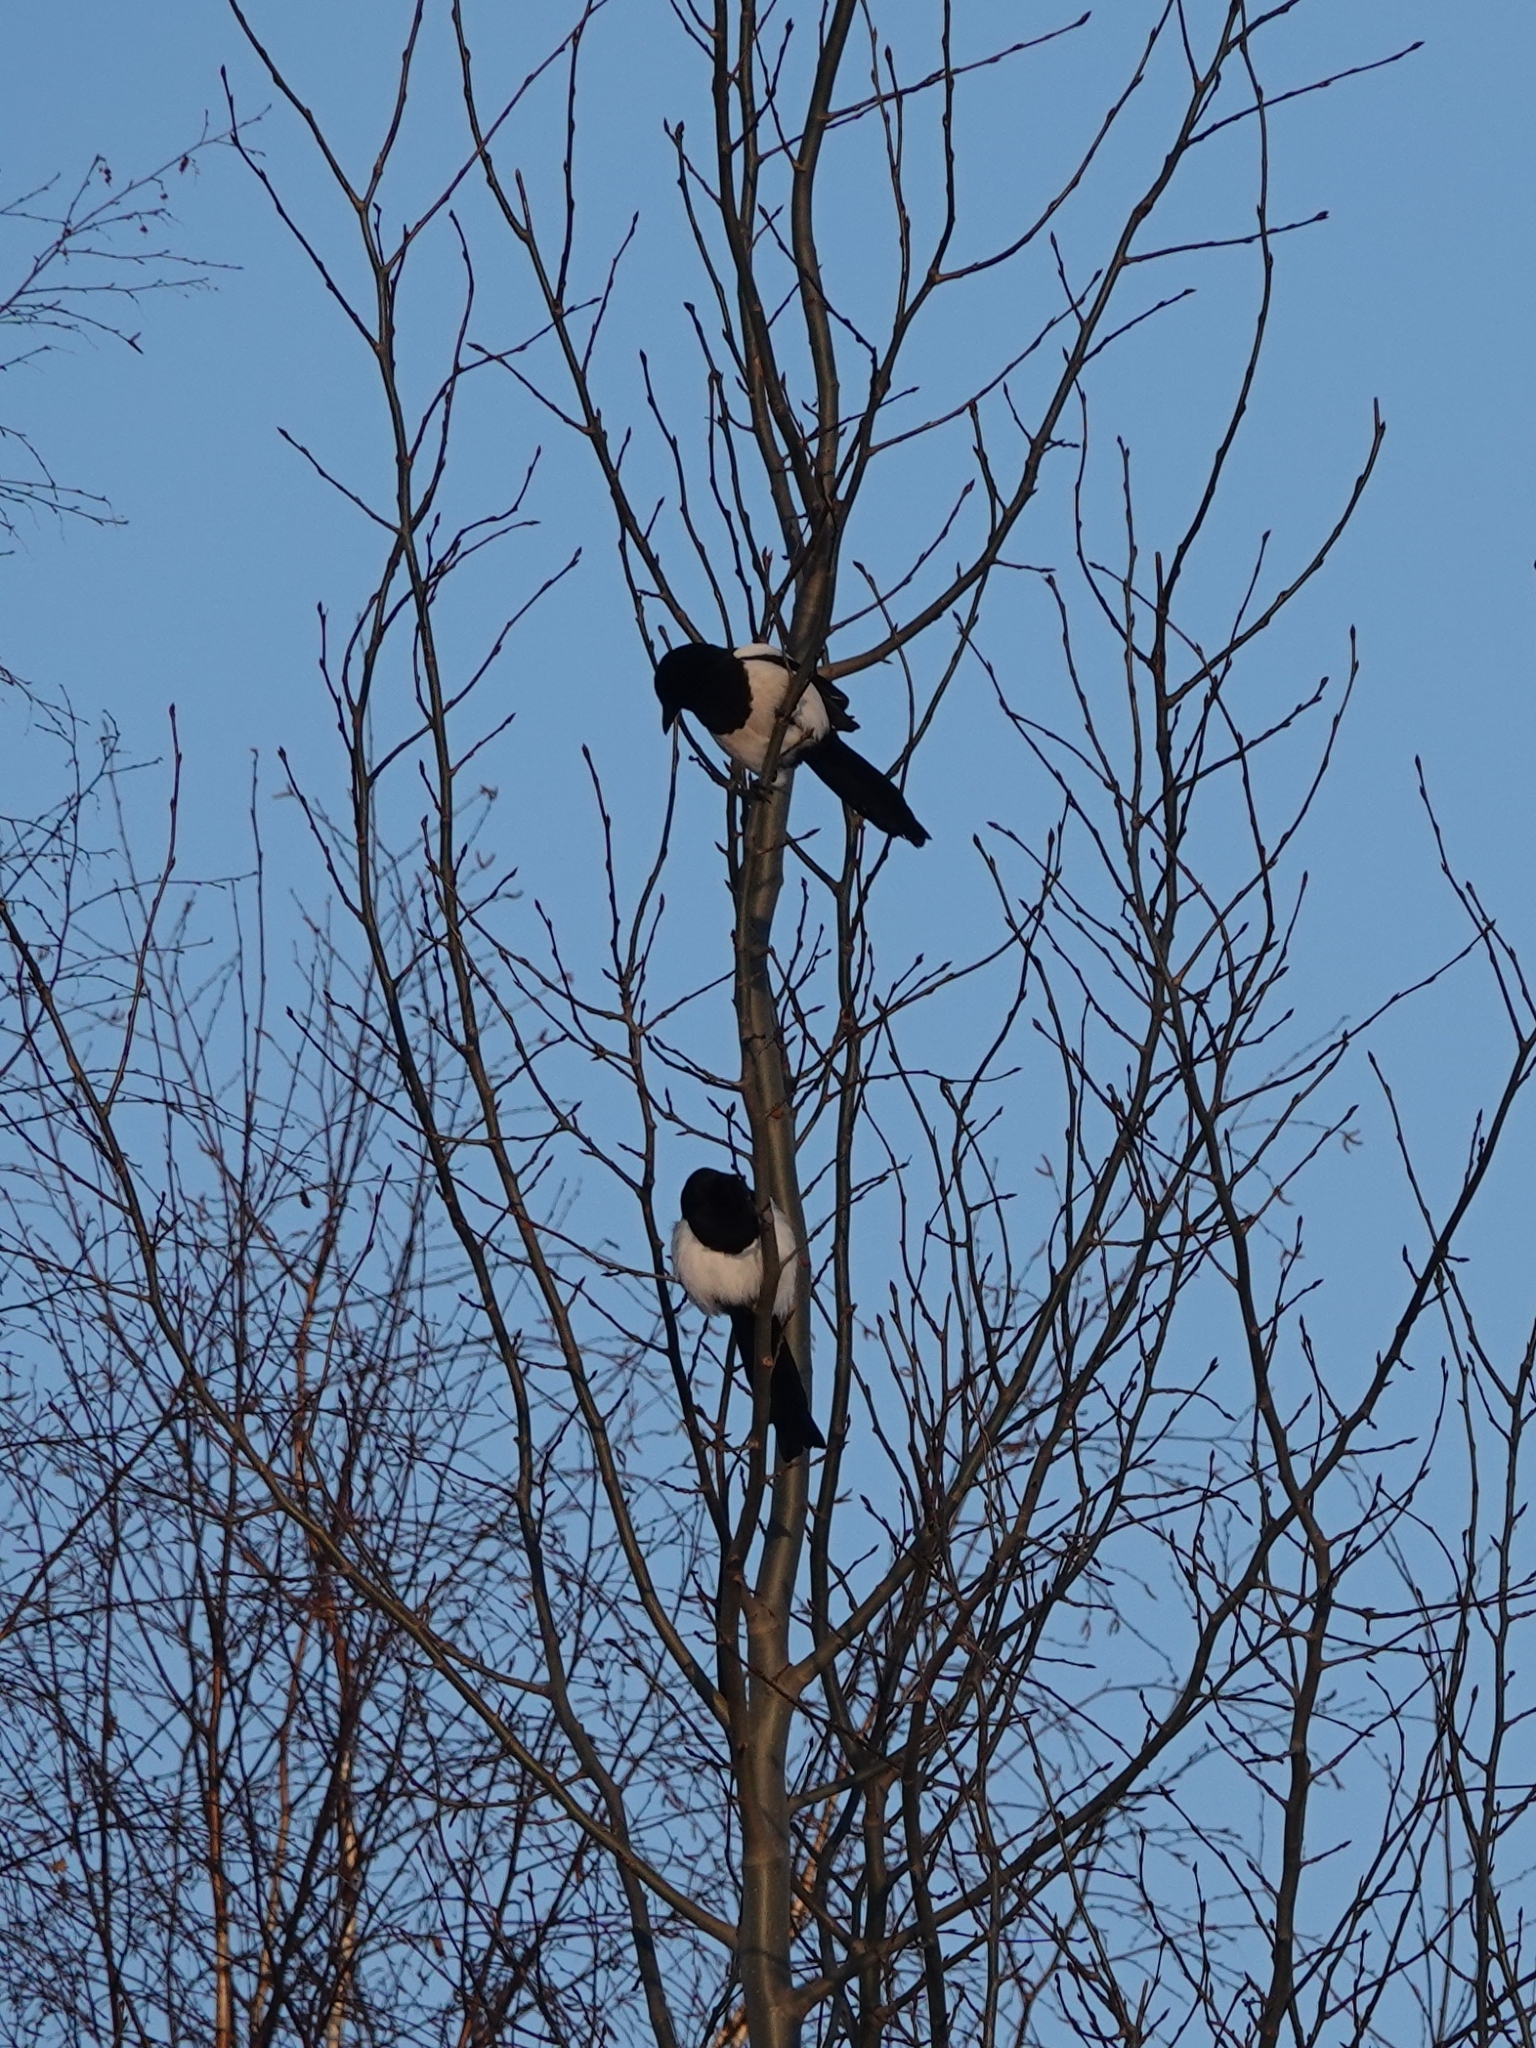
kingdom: Animalia
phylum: Chordata
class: Aves
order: Passeriformes
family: Corvidae
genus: Pica
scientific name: Pica pica
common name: Eurasian magpie
